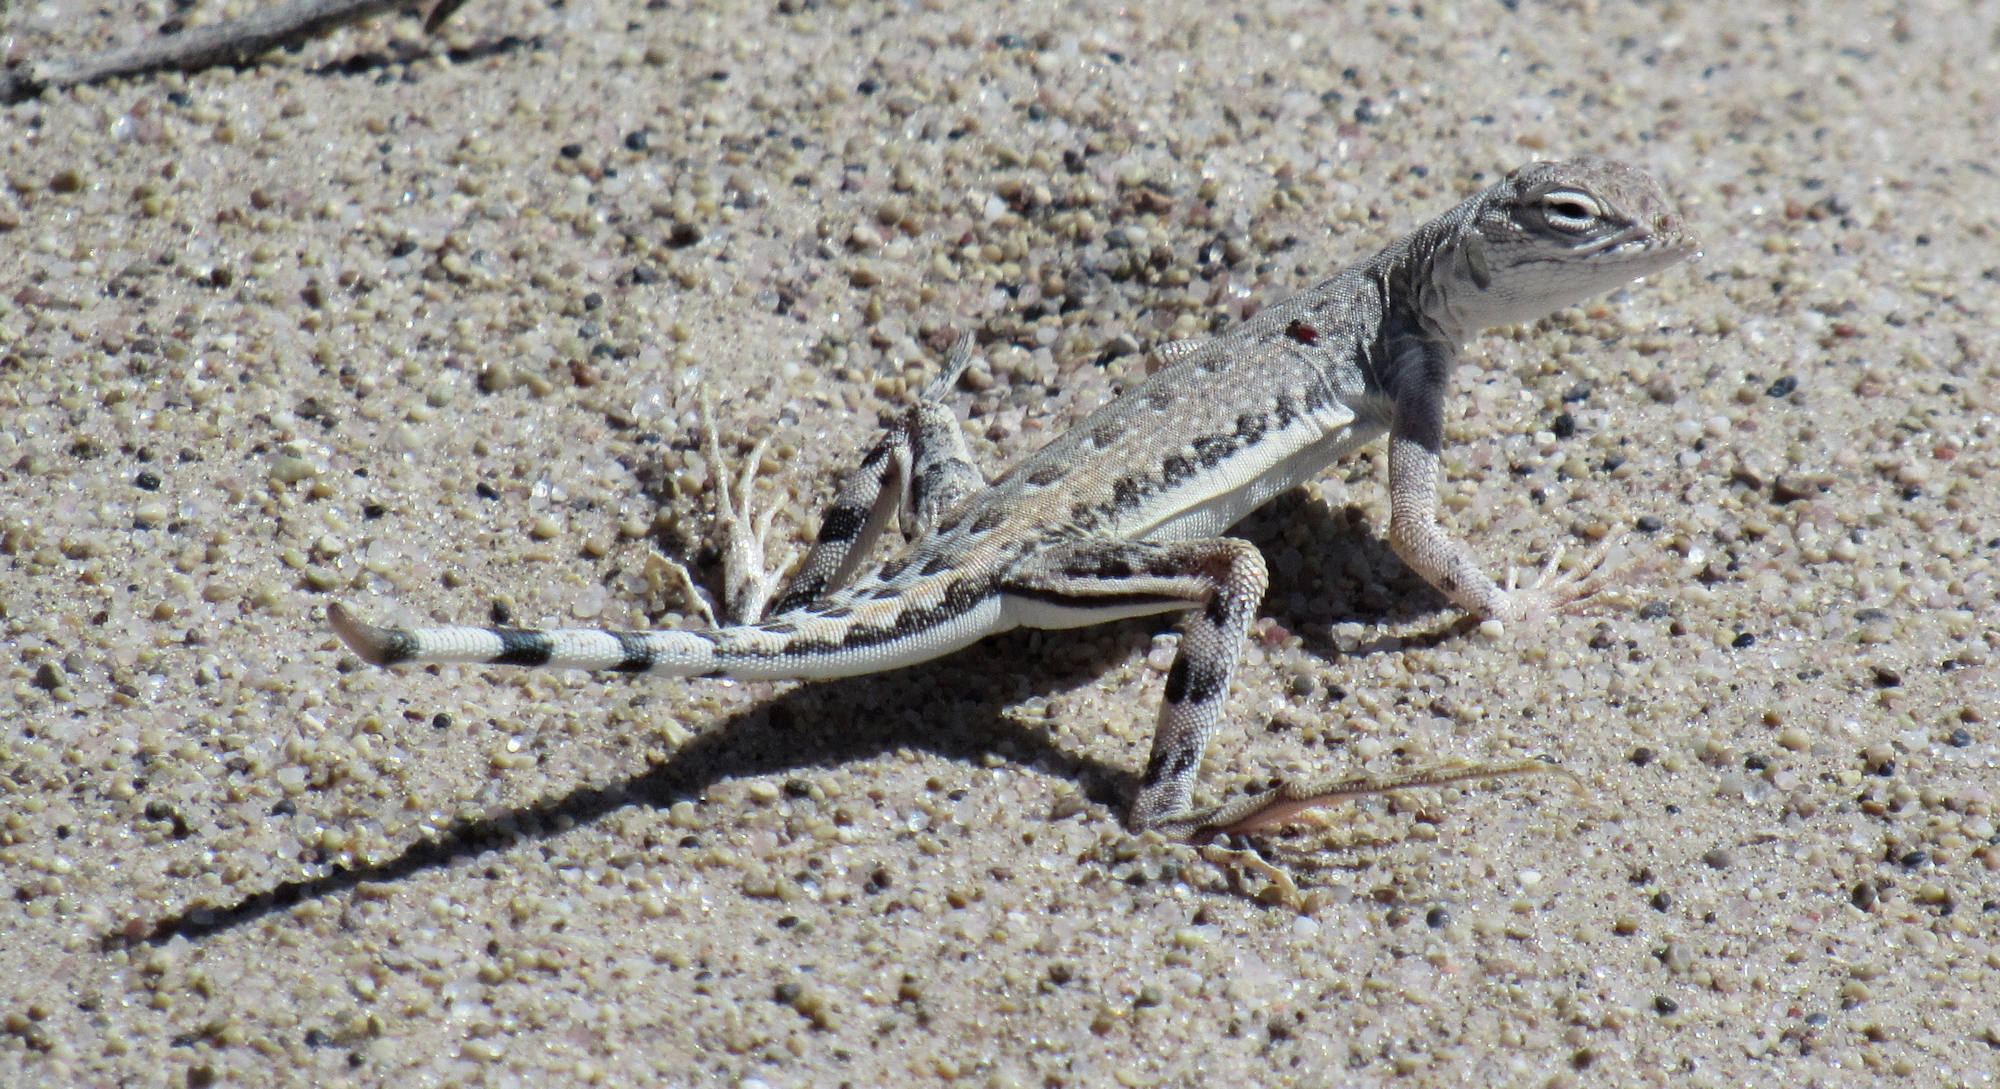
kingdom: Animalia
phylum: Chordata
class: Squamata
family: Phrynosomatidae
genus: Callisaurus
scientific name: Callisaurus draconoides
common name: Zebra-tailed lizard
